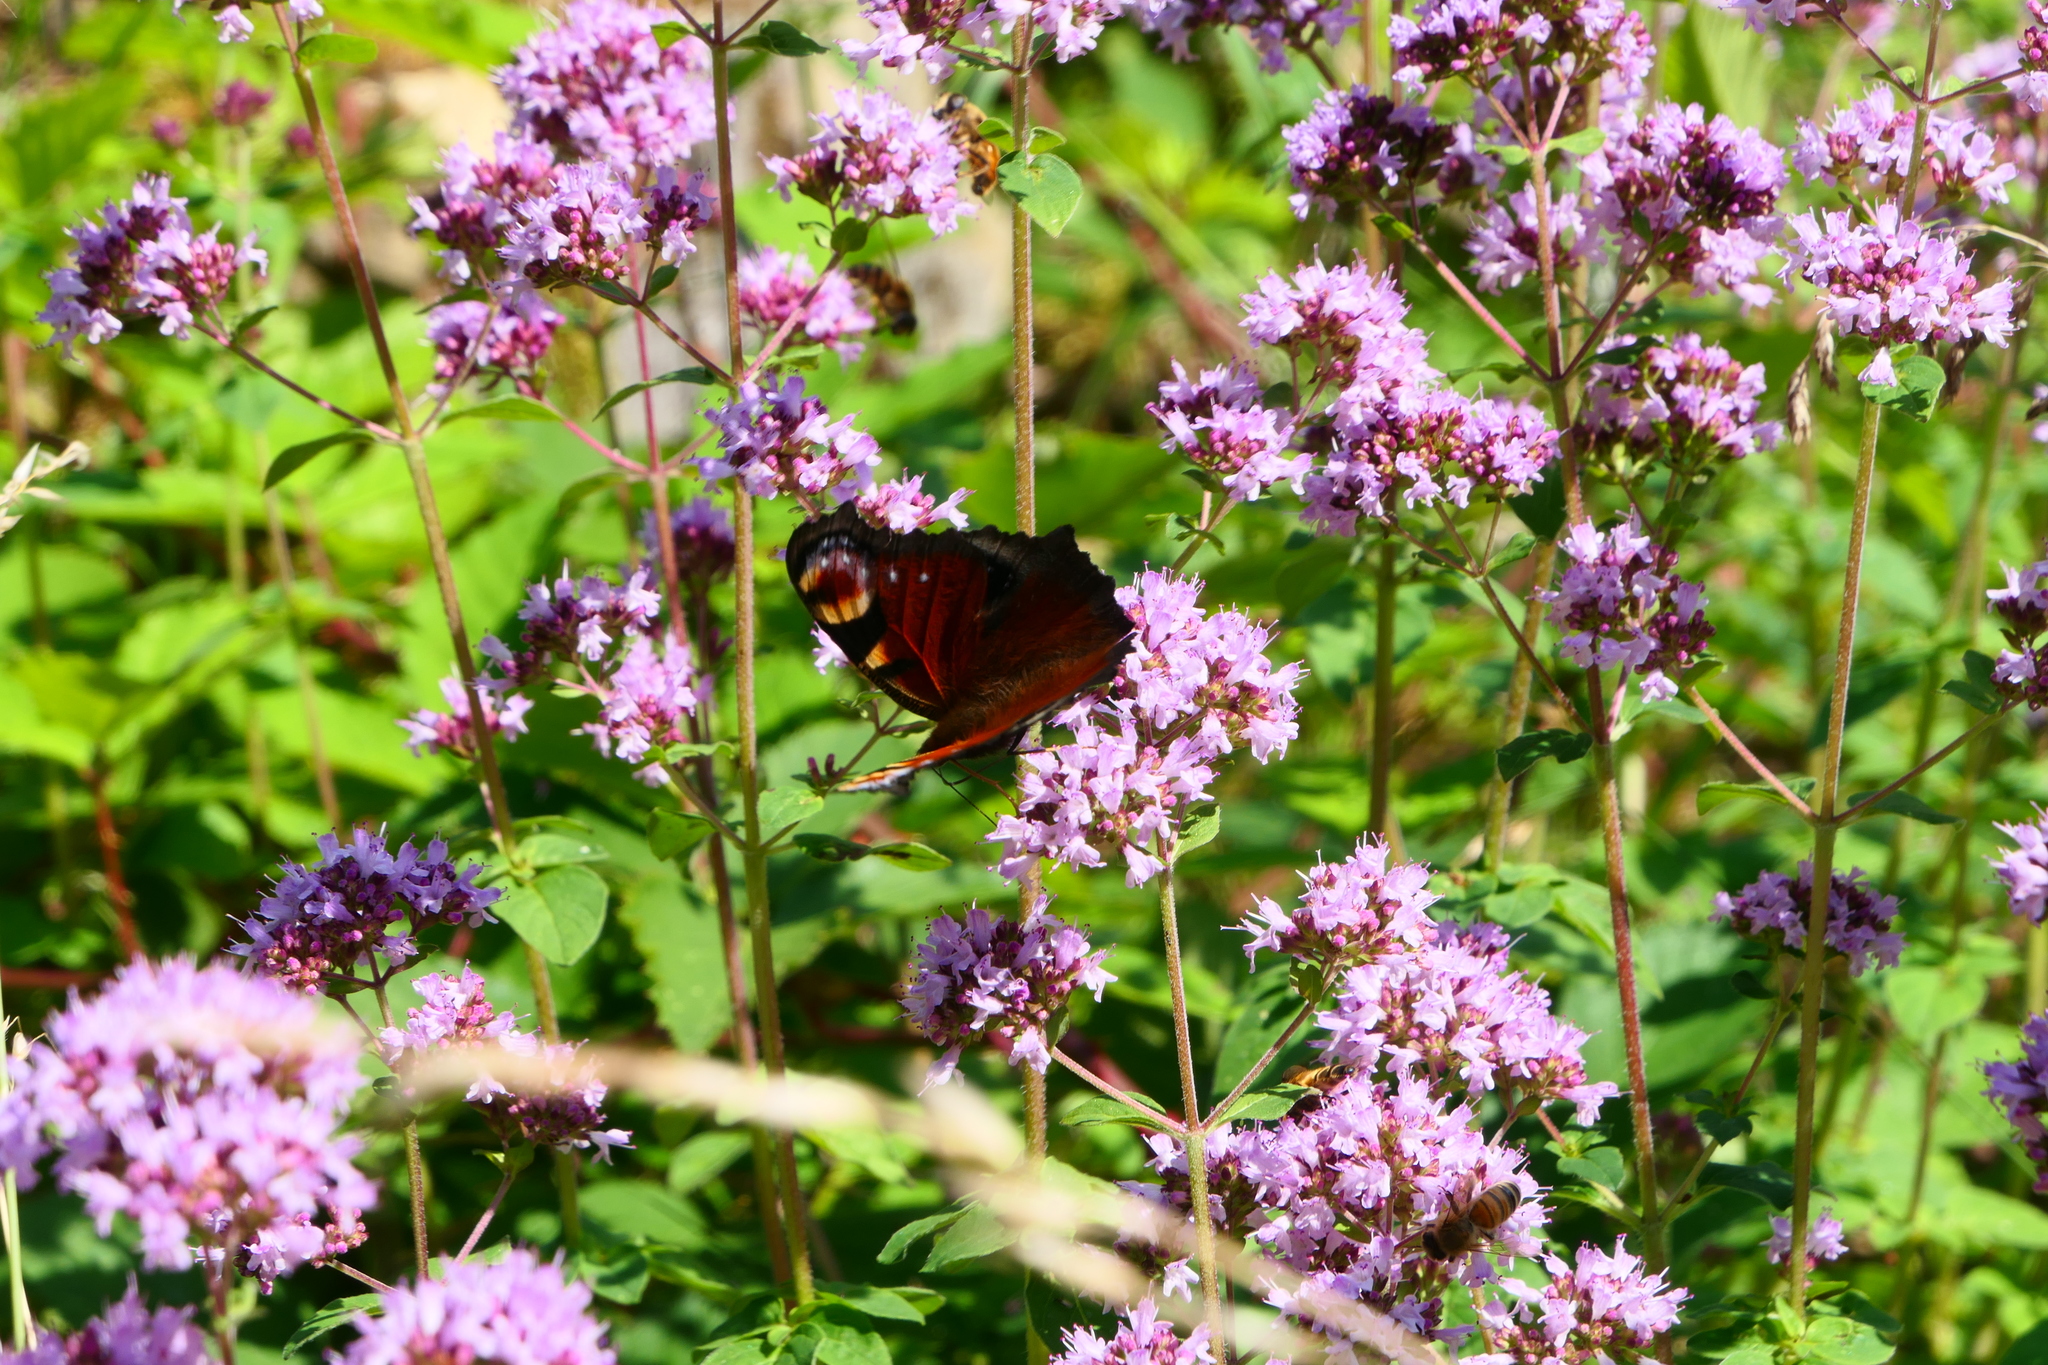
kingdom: Animalia
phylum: Arthropoda
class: Insecta
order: Lepidoptera
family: Nymphalidae
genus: Aglais
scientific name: Aglais io
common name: Peacock
